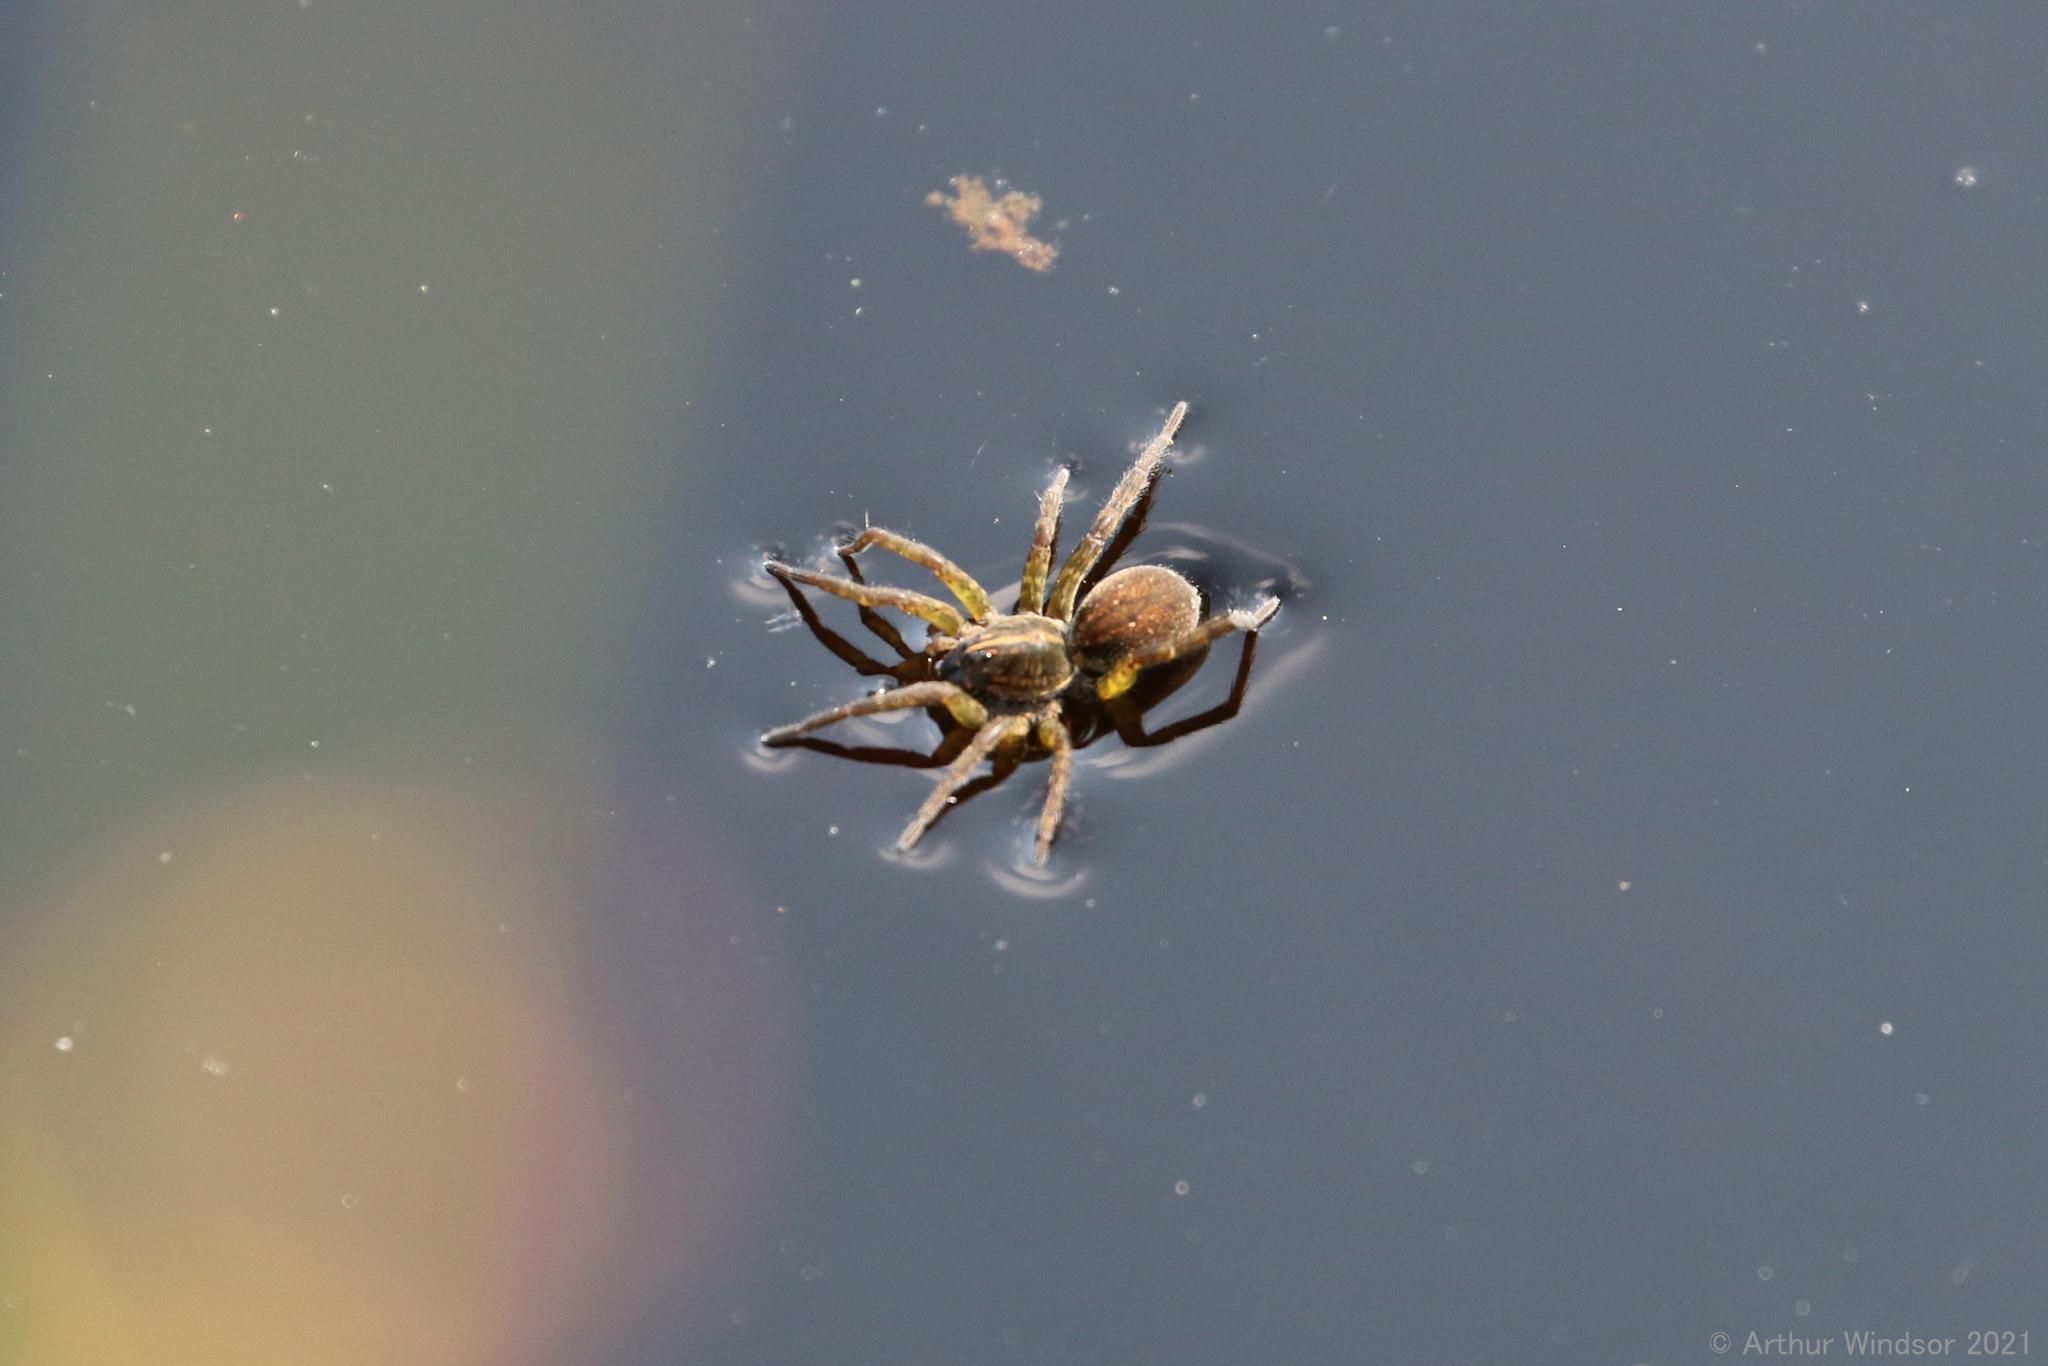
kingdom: Animalia
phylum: Arthropoda
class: Arachnida
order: Araneae
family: Lycosidae
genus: Tigrosa
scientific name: Tigrosa helluo
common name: Wetland giant wolf spider
